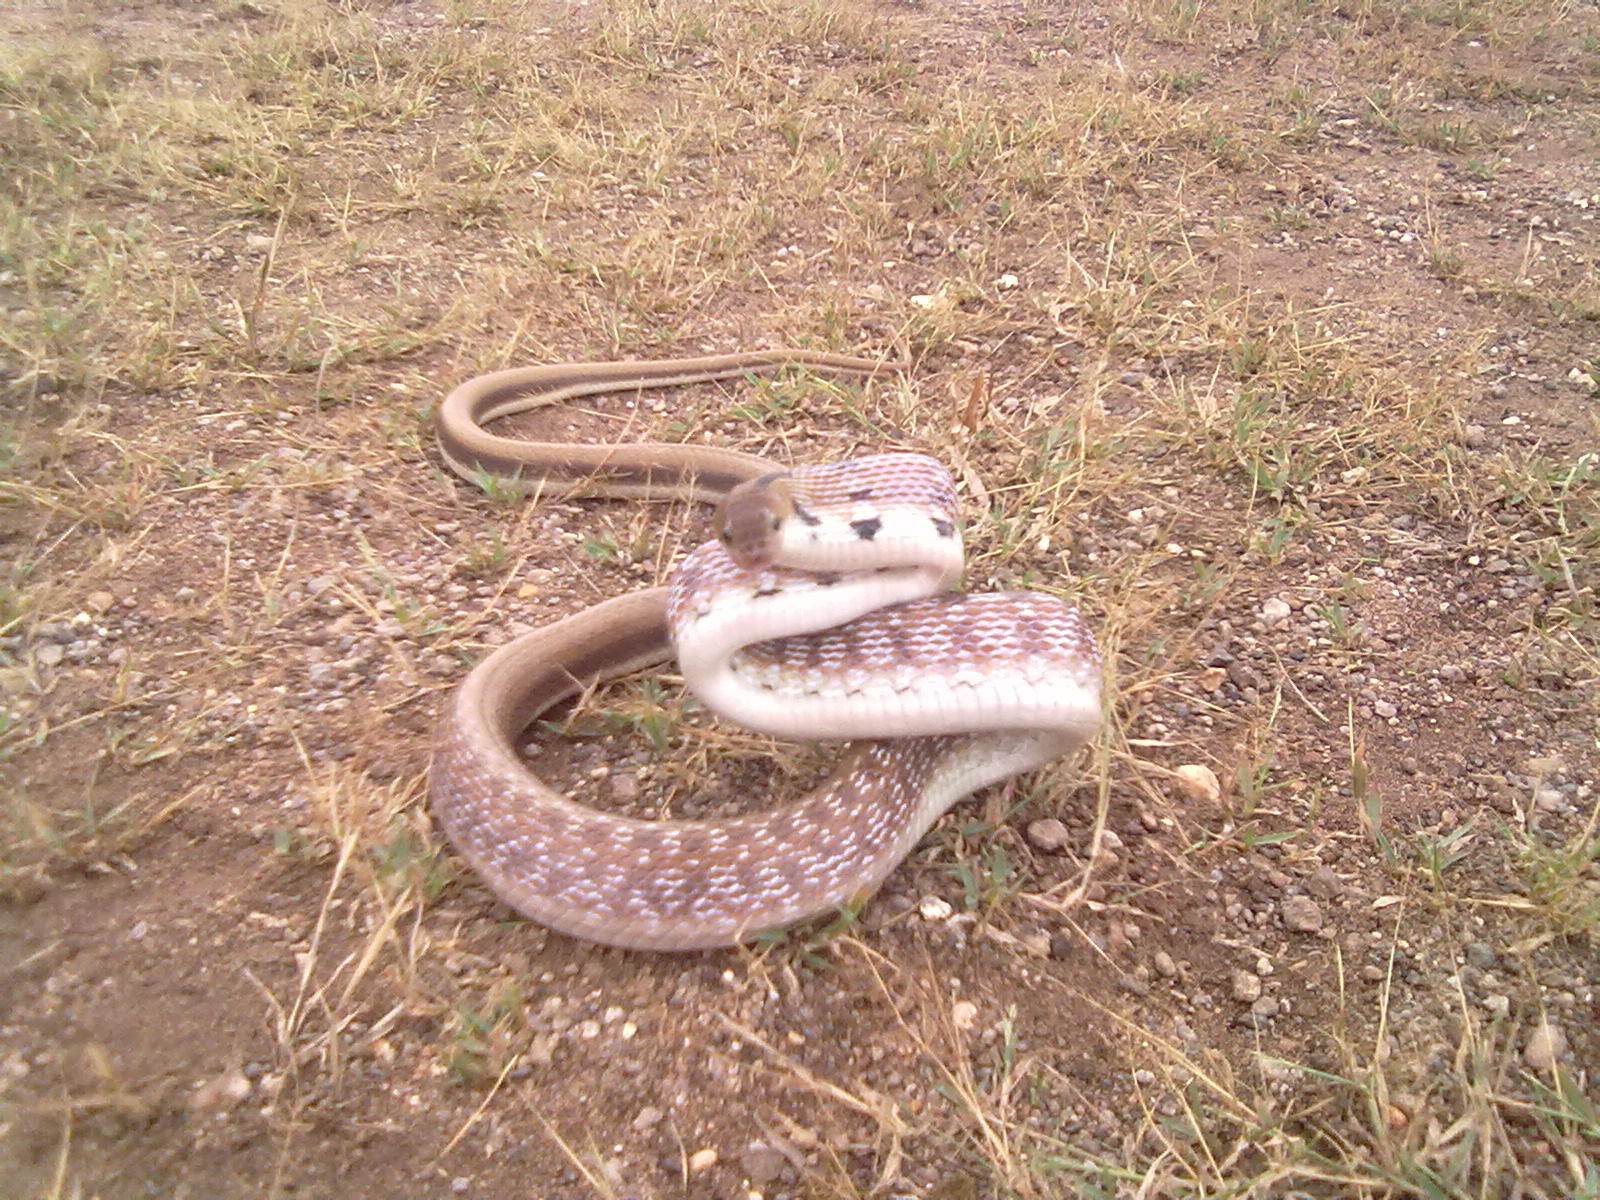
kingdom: Animalia
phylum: Chordata
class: Squamata
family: Colubridae
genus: Coelognathus
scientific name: Coelognathus helena
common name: Trinket snake
